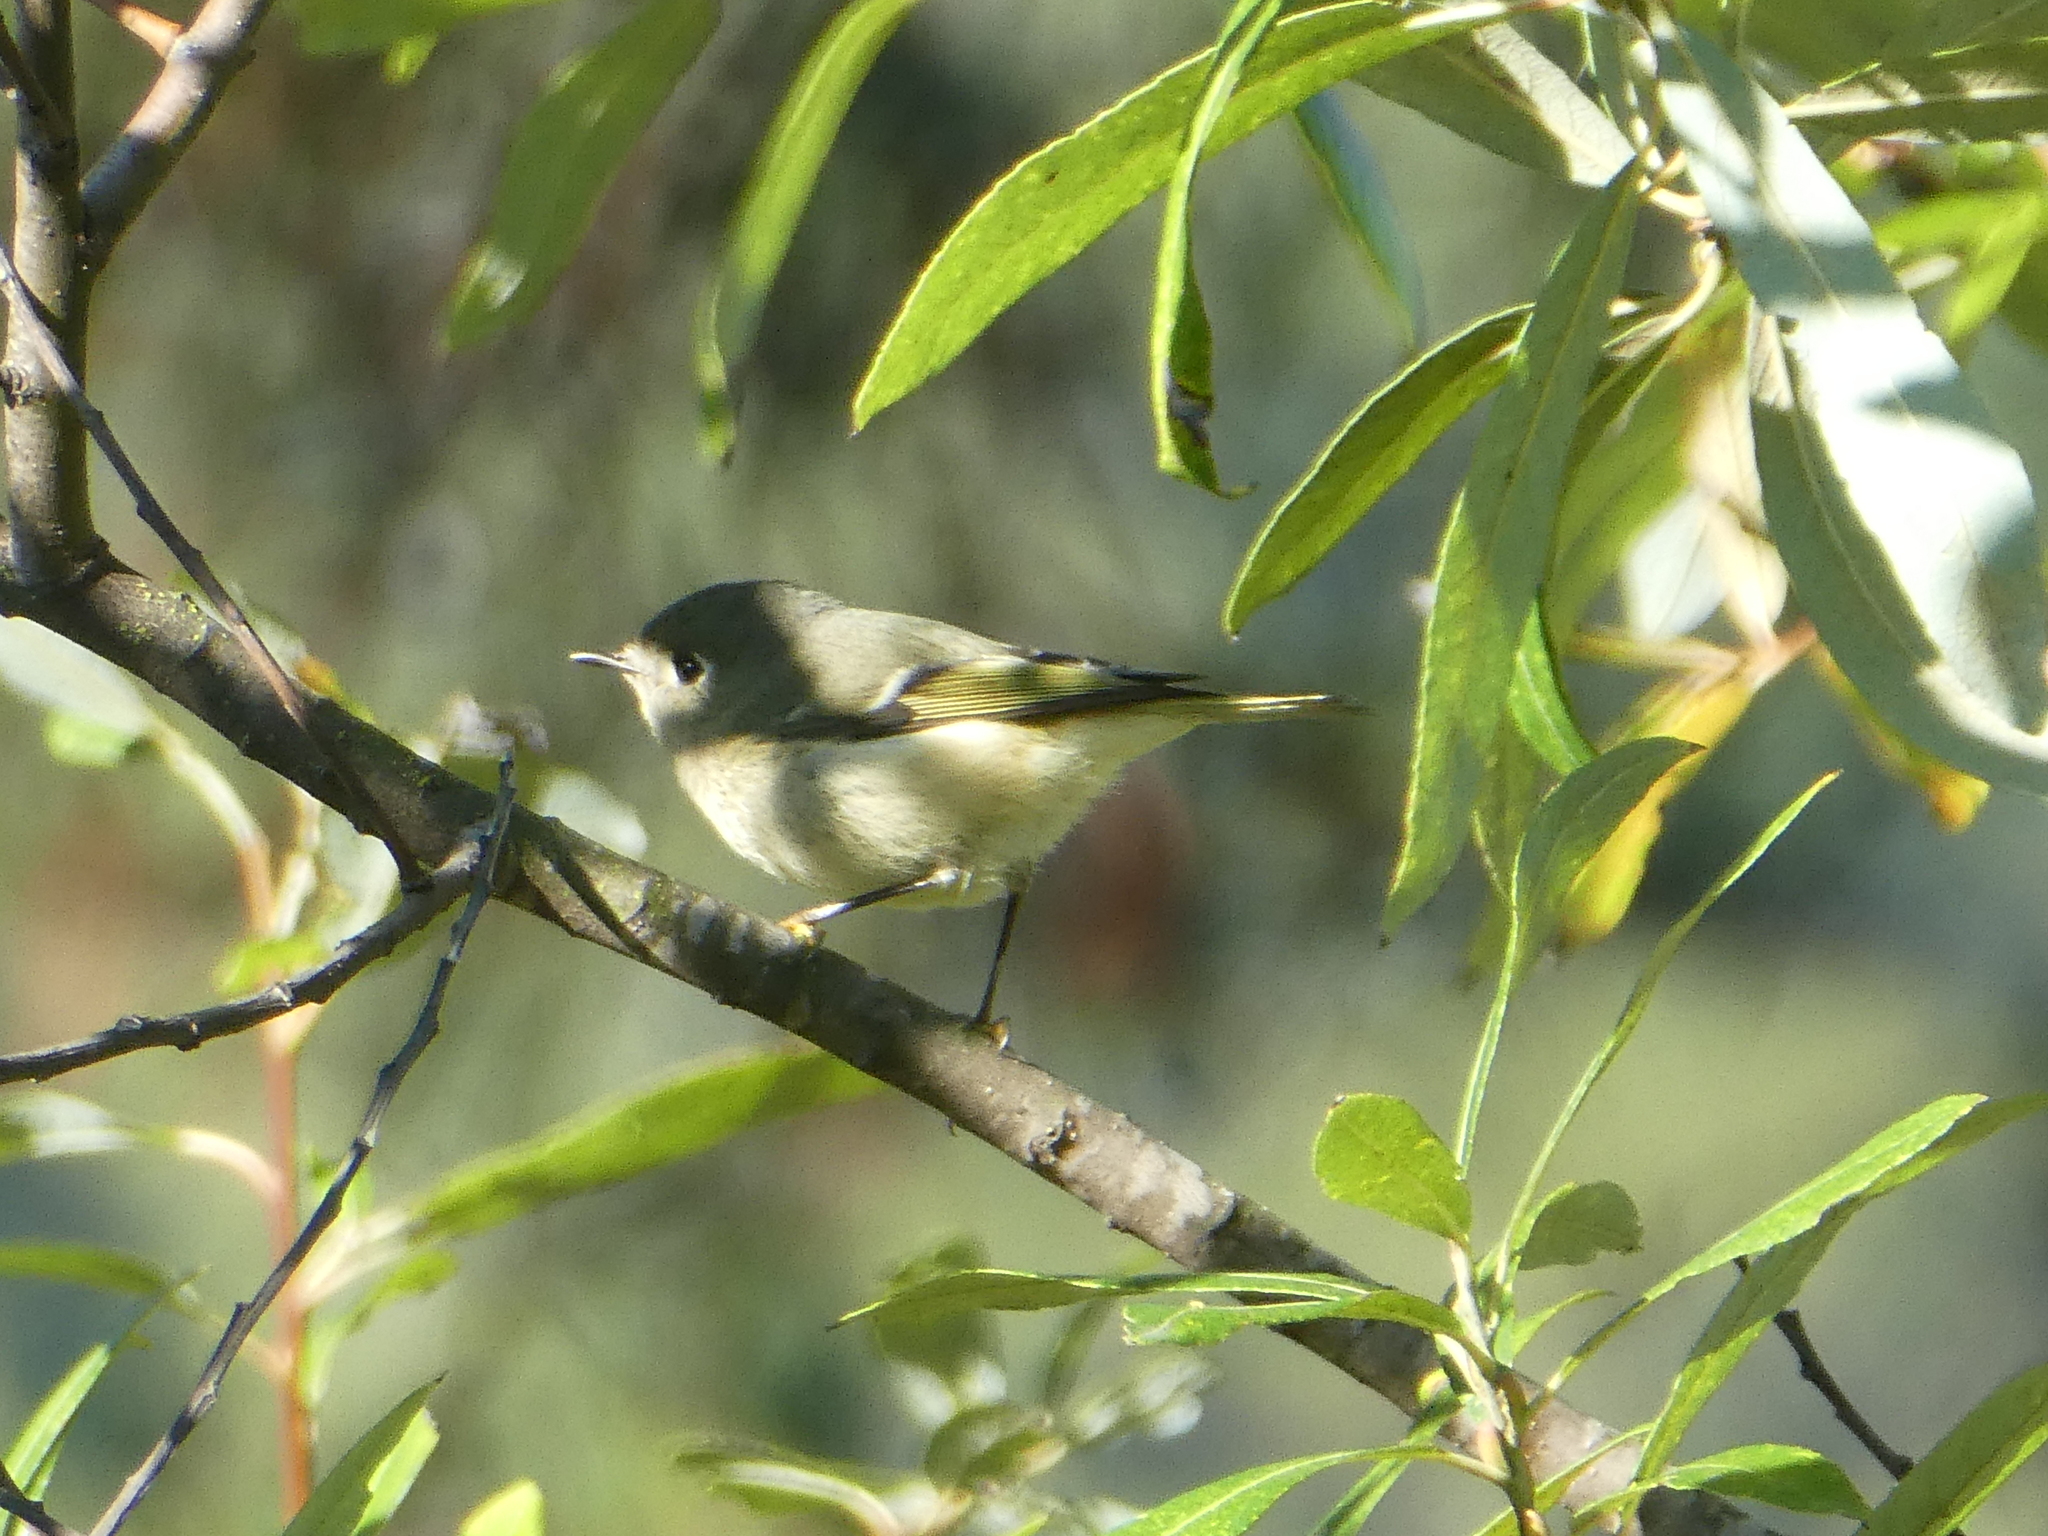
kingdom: Animalia
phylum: Chordata
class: Aves
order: Passeriformes
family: Regulidae
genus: Regulus
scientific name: Regulus calendula
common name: Ruby-crowned kinglet
